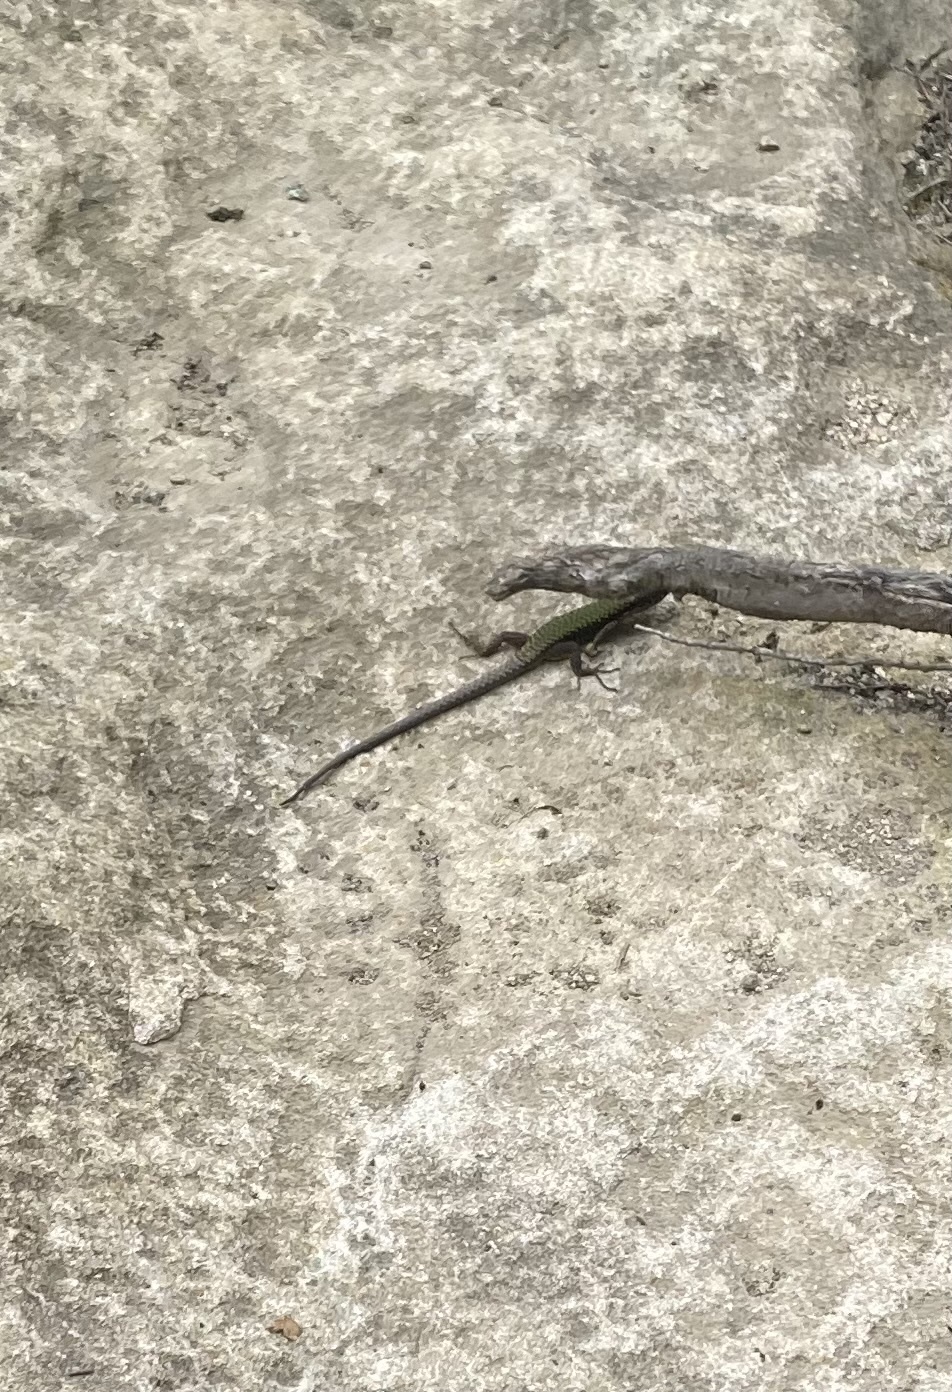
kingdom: Animalia
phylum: Chordata
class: Squamata
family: Lacertidae
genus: Darevskia
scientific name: Darevskia brauneri
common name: Brauner's rock lizard
